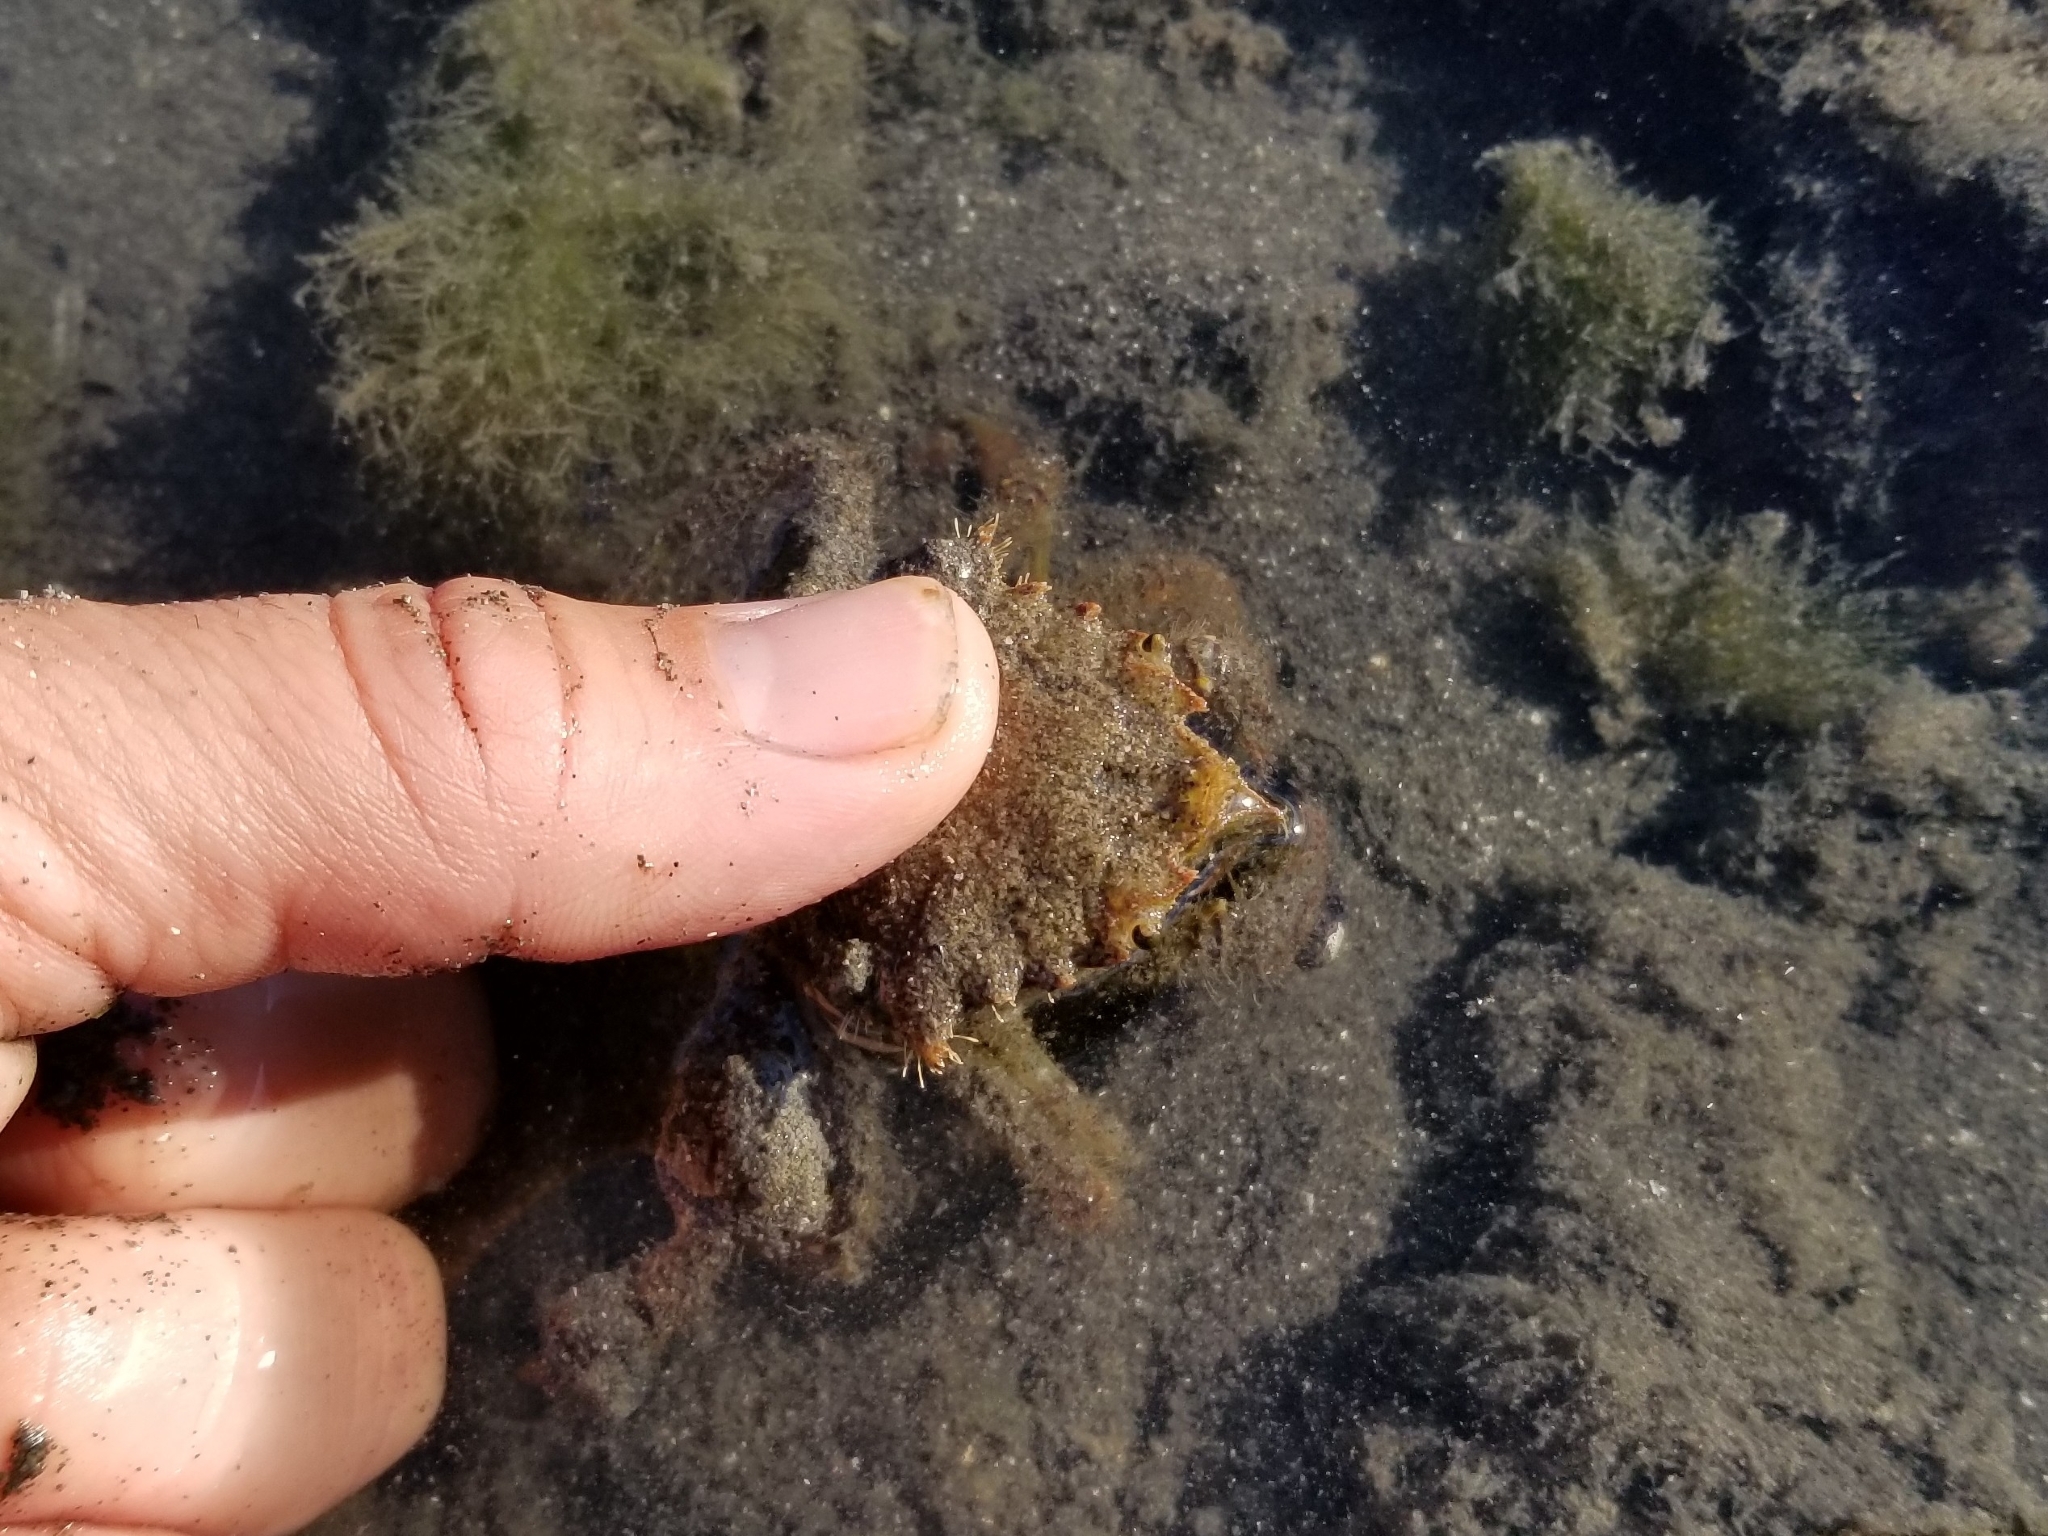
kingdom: Animalia
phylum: Arthropoda
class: Malacostraca
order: Decapoda
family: Cheiragonidae
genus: Telmessus
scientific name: Telmessus cheiragonus
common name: Helmet crab
